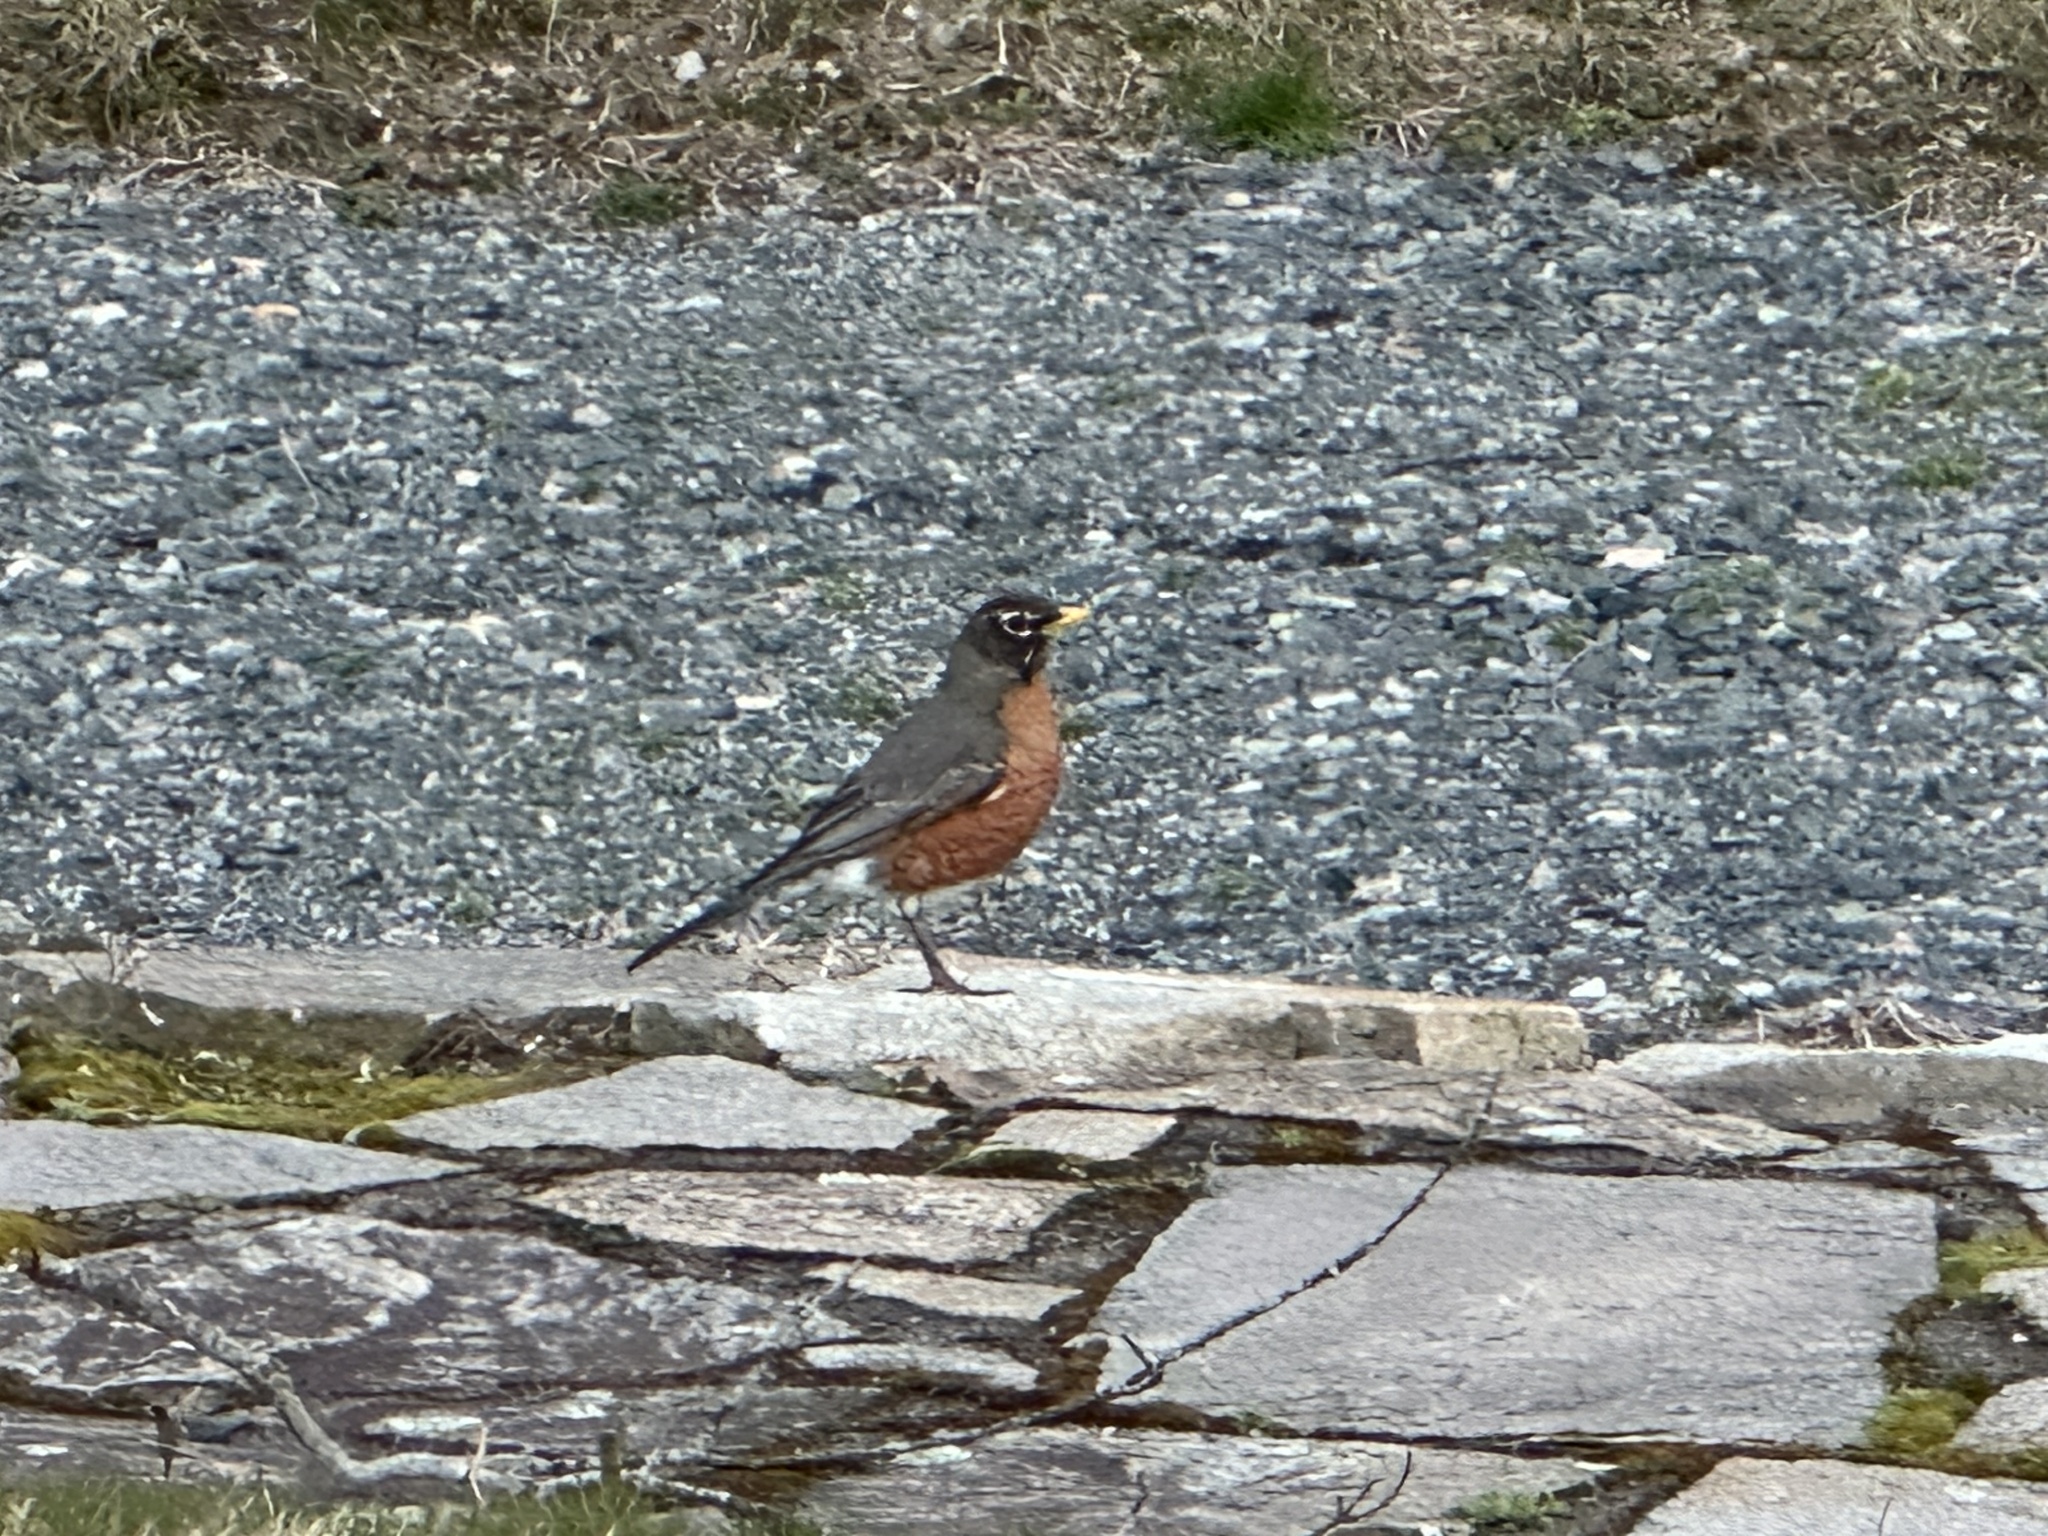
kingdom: Animalia
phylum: Chordata
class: Aves
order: Passeriformes
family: Turdidae
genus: Turdus
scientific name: Turdus migratorius
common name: American robin
